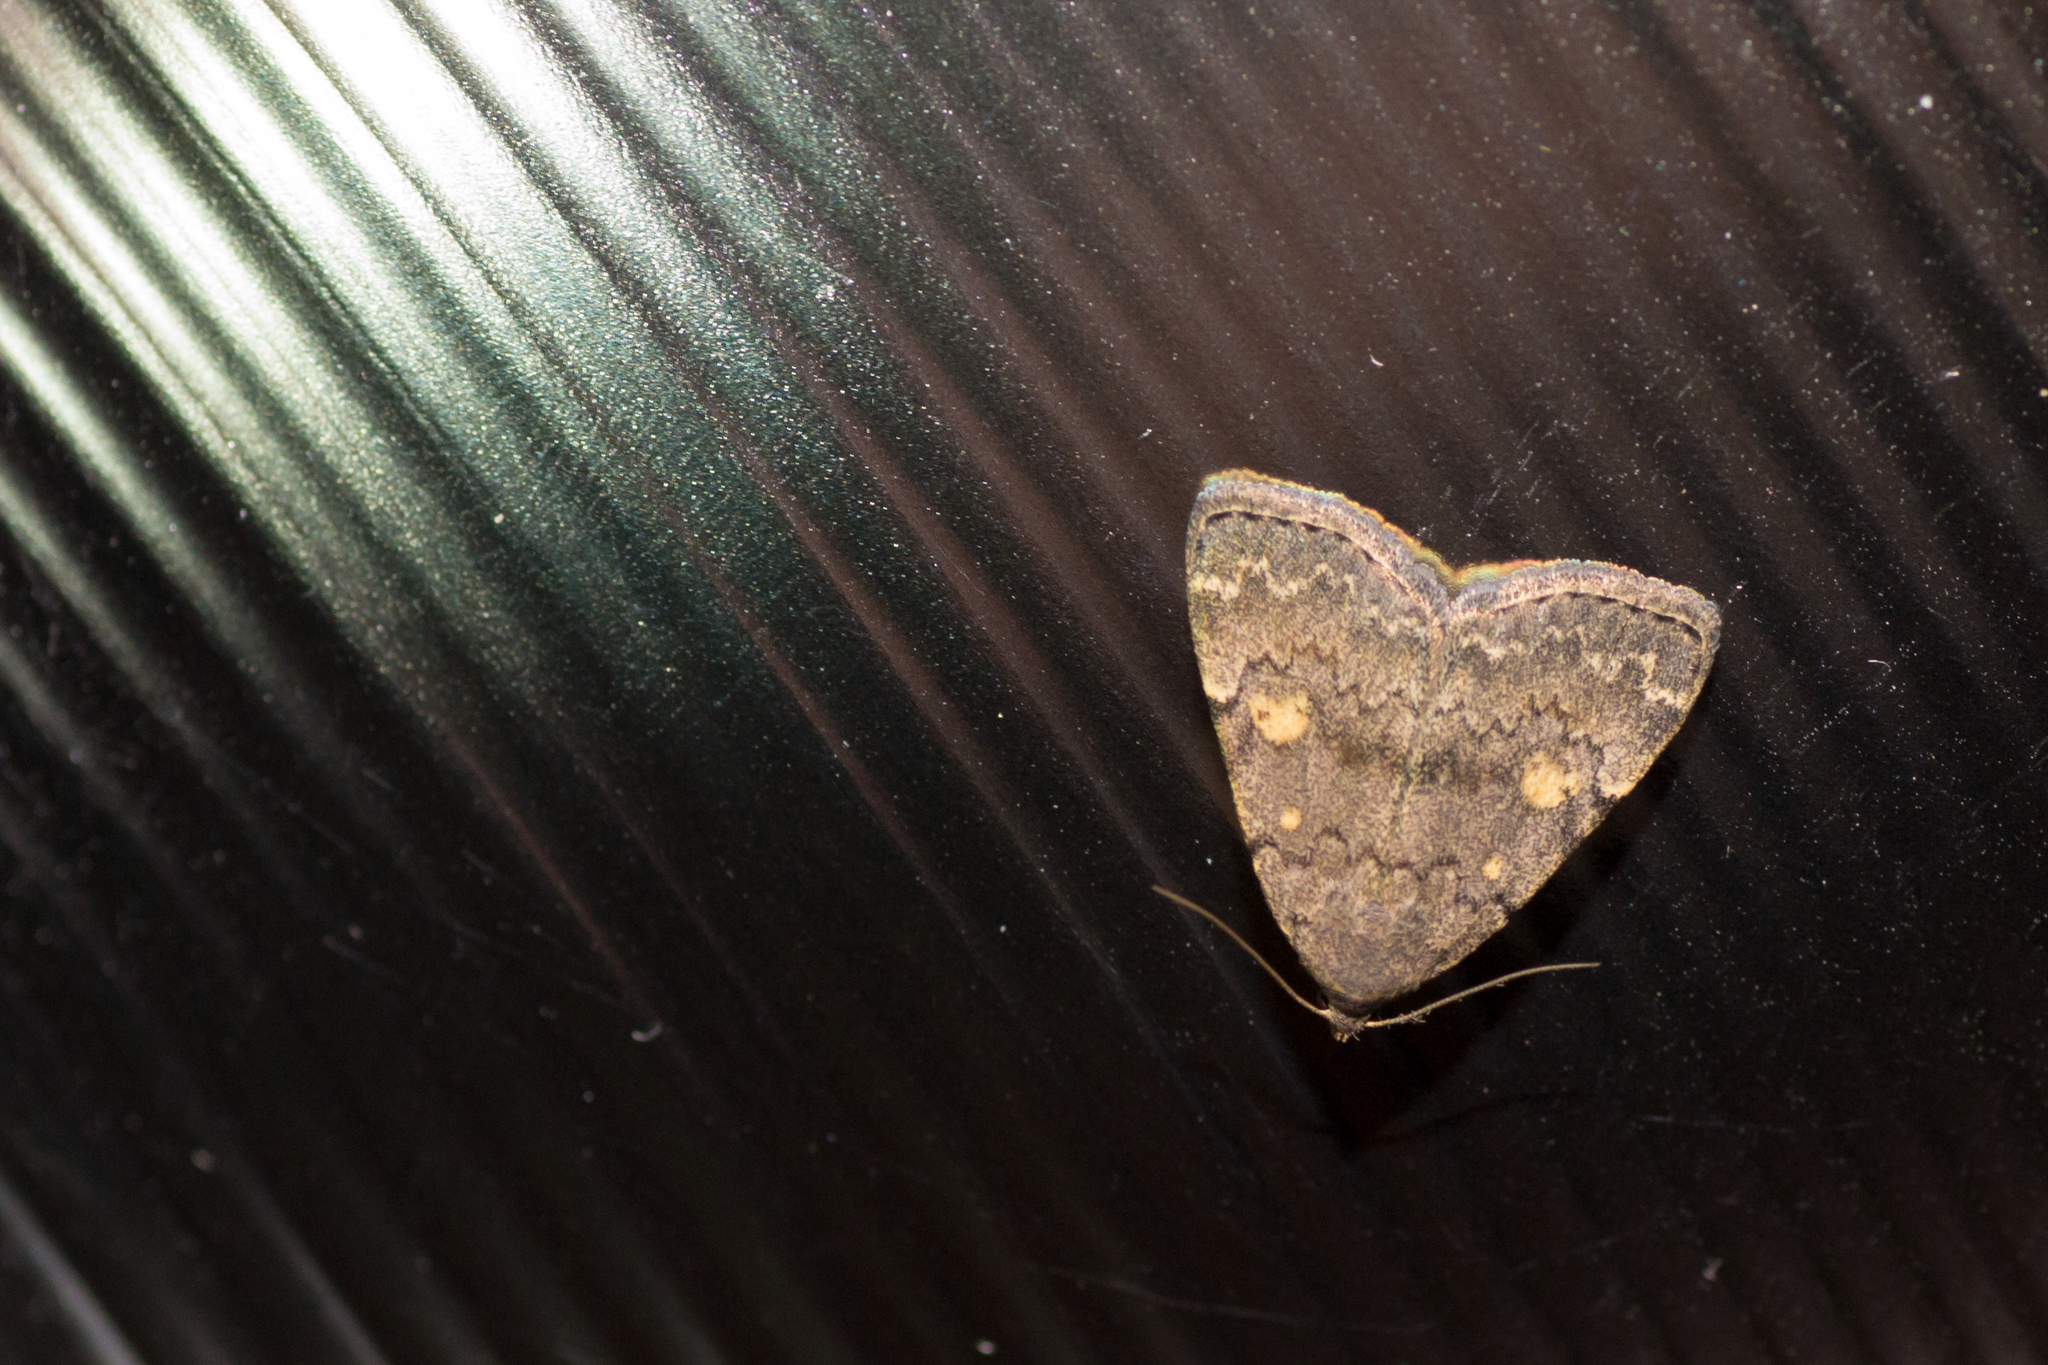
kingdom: Animalia
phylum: Arthropoda
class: Insecta
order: Lepidoptera
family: Erebidae
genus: Idia
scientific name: Idia aemula
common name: Common idia moth
